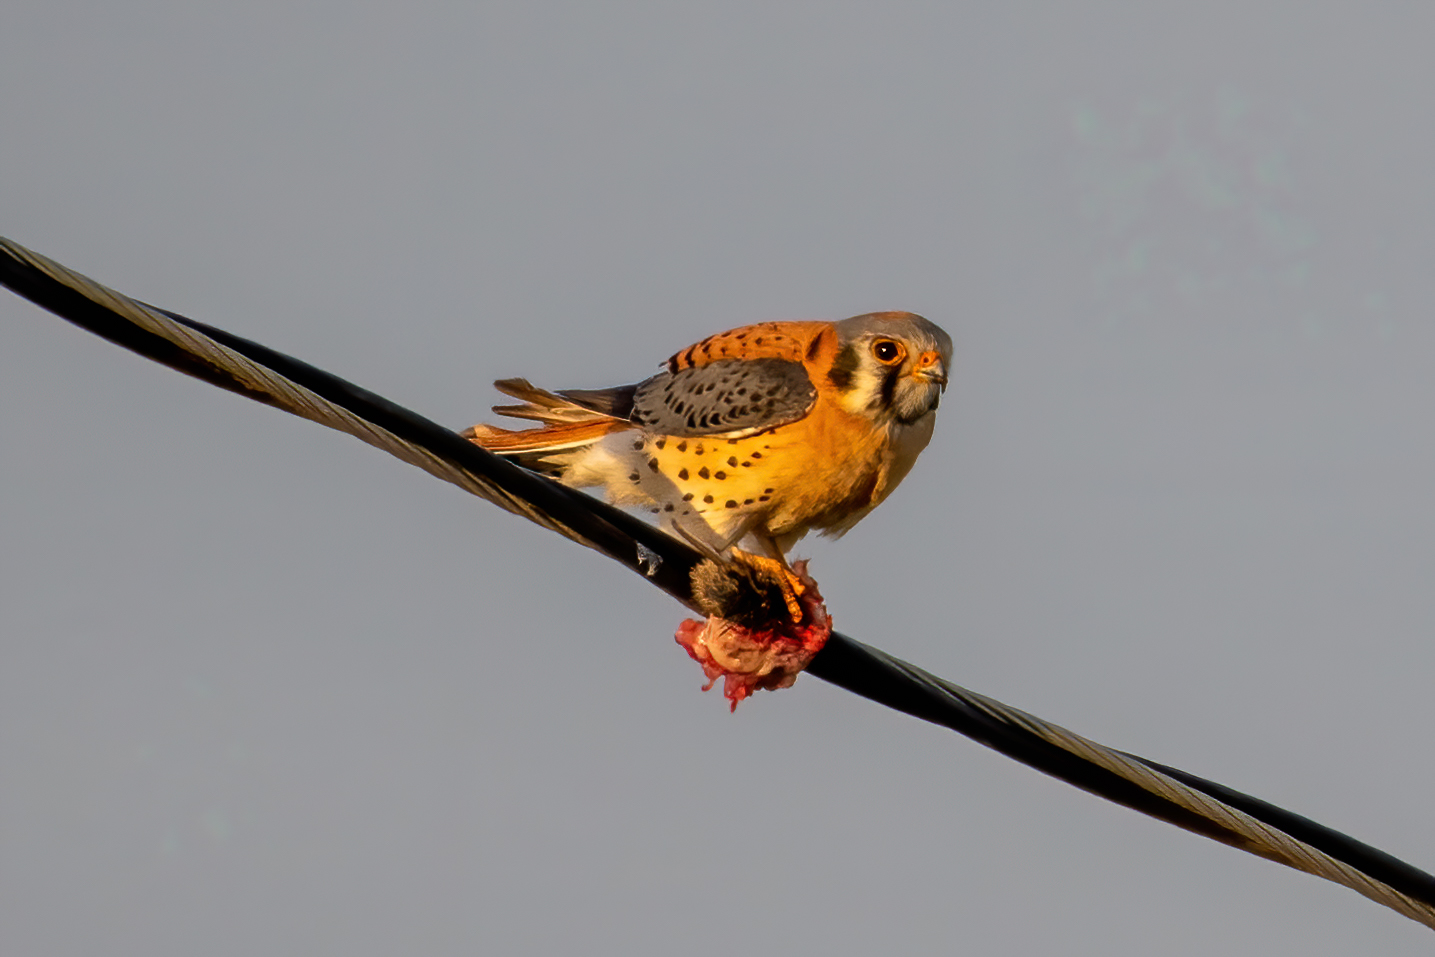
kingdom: Animalia
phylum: Chordata
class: Aves
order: Falconiformes
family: Falconidae
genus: Falco
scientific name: Falco sparverius
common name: American kestrel
